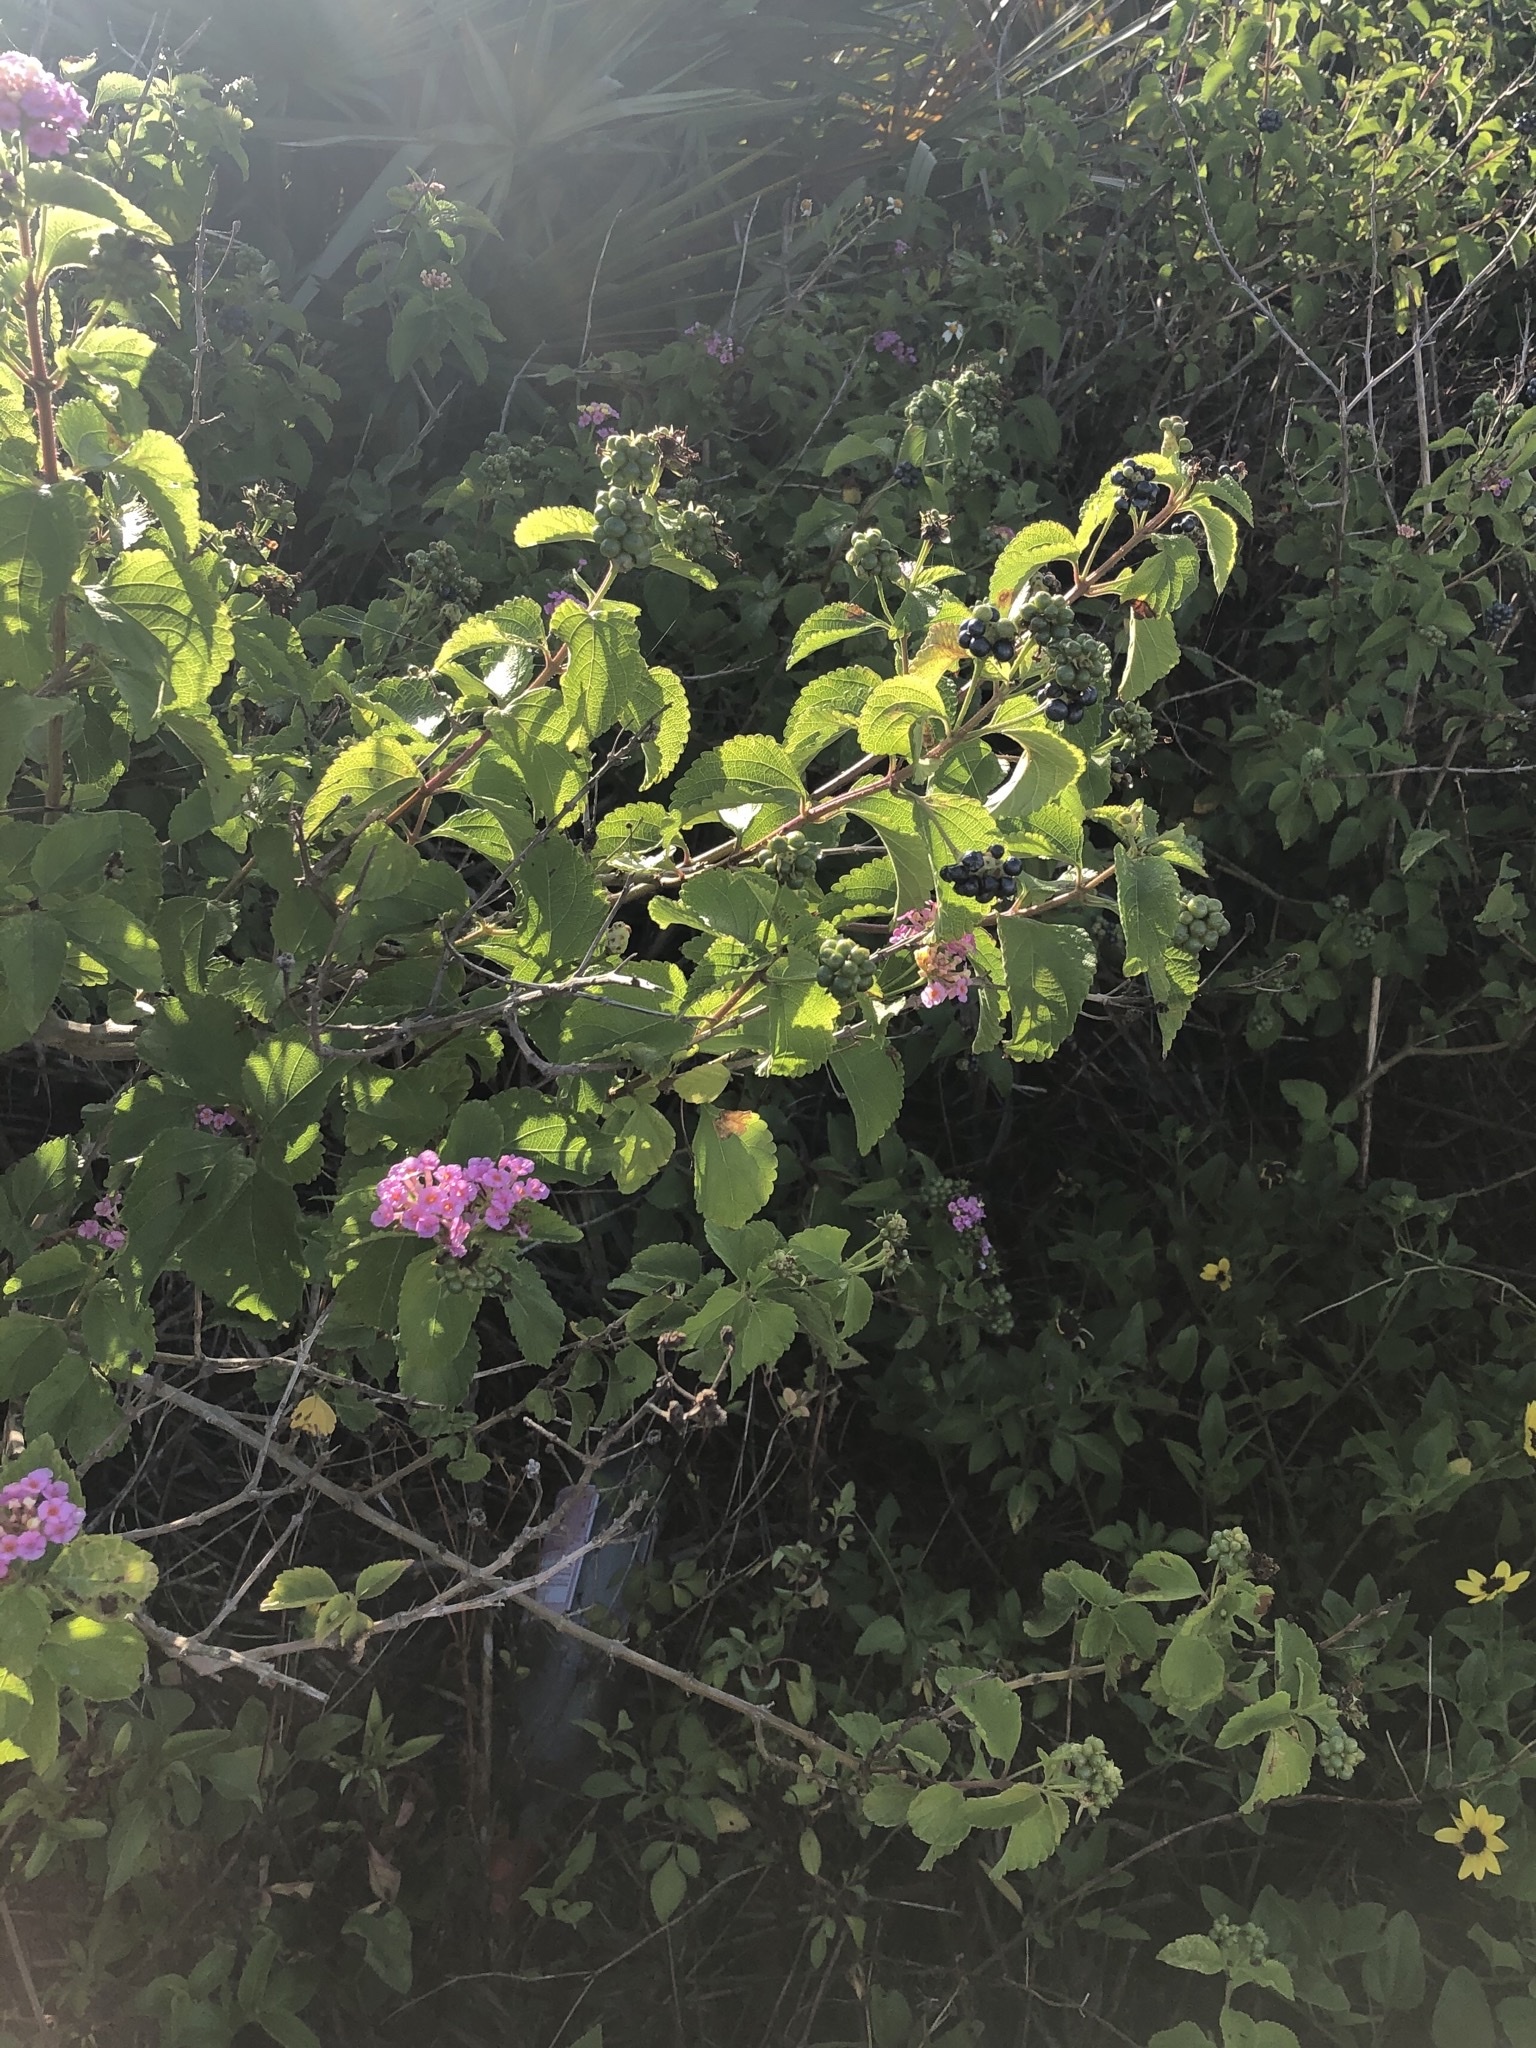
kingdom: Plantae
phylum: Tracheophyta
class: Magnoliopsida
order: Lamiales
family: Verbenaceae
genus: Lantana
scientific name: Lantana camara
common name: Lantana
